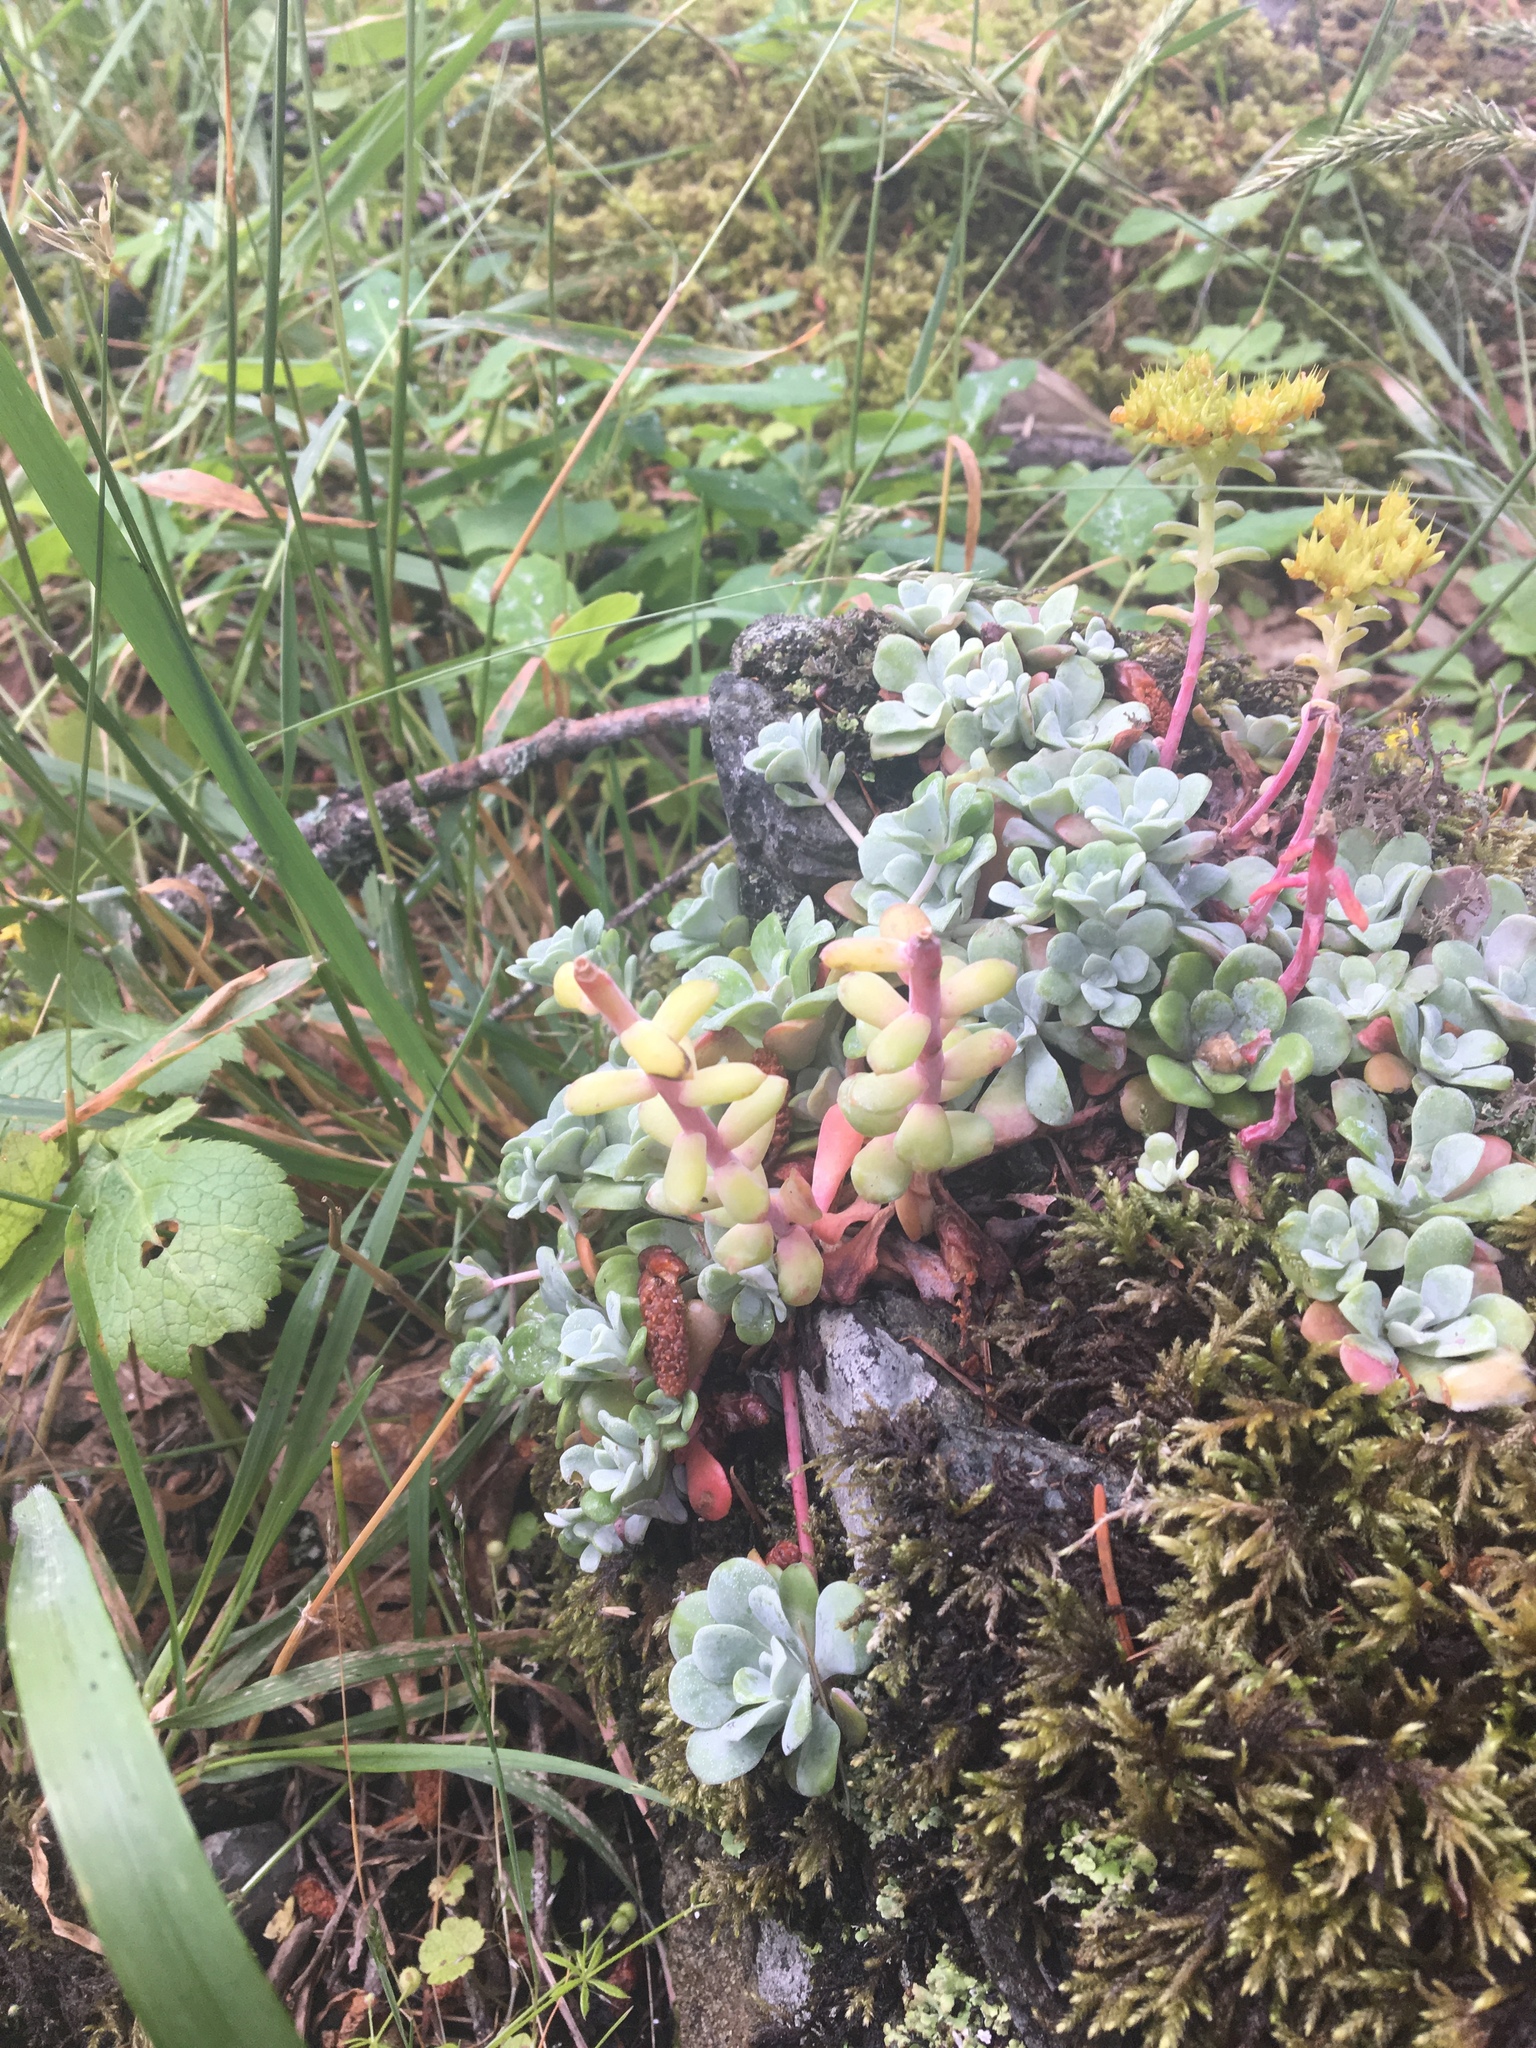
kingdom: Plantae
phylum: Tracheophyta
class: Magnoliopsida
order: Saxifragales
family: Crassulaceae
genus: Sedum
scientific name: Sedum spathulifolium
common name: Colorado stonecrop
